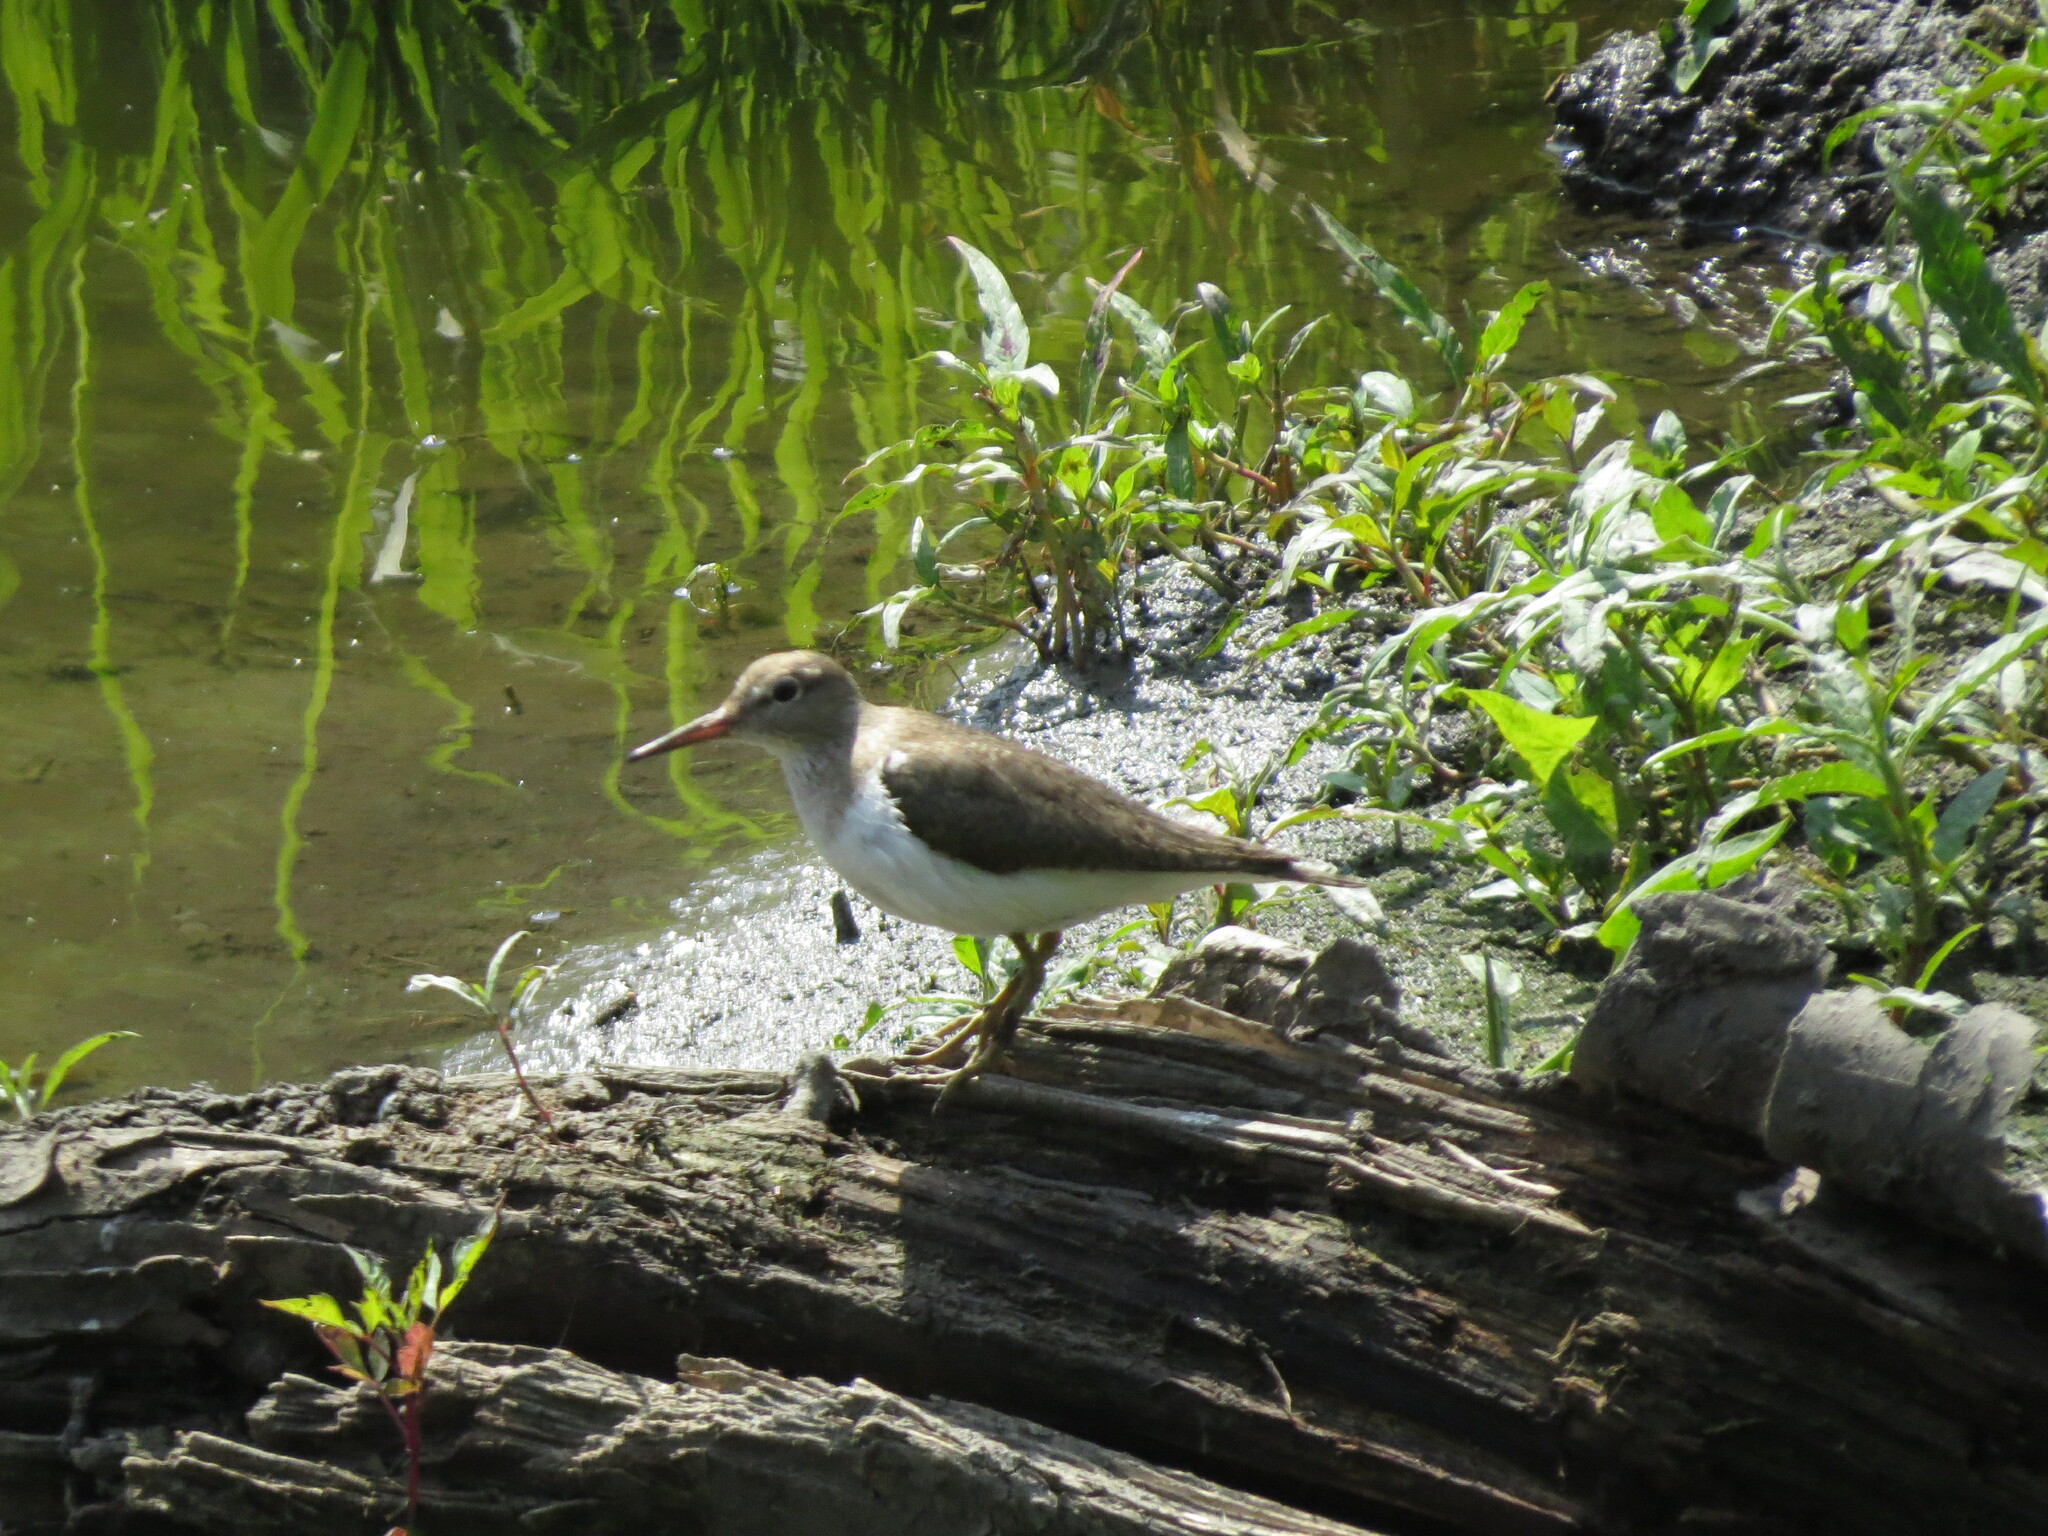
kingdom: Animalia
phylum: Chordata
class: Aves
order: Charadriiformes
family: Scolopacidae
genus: Actitis
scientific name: Actitis hypoleucos
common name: Common sandpiper
